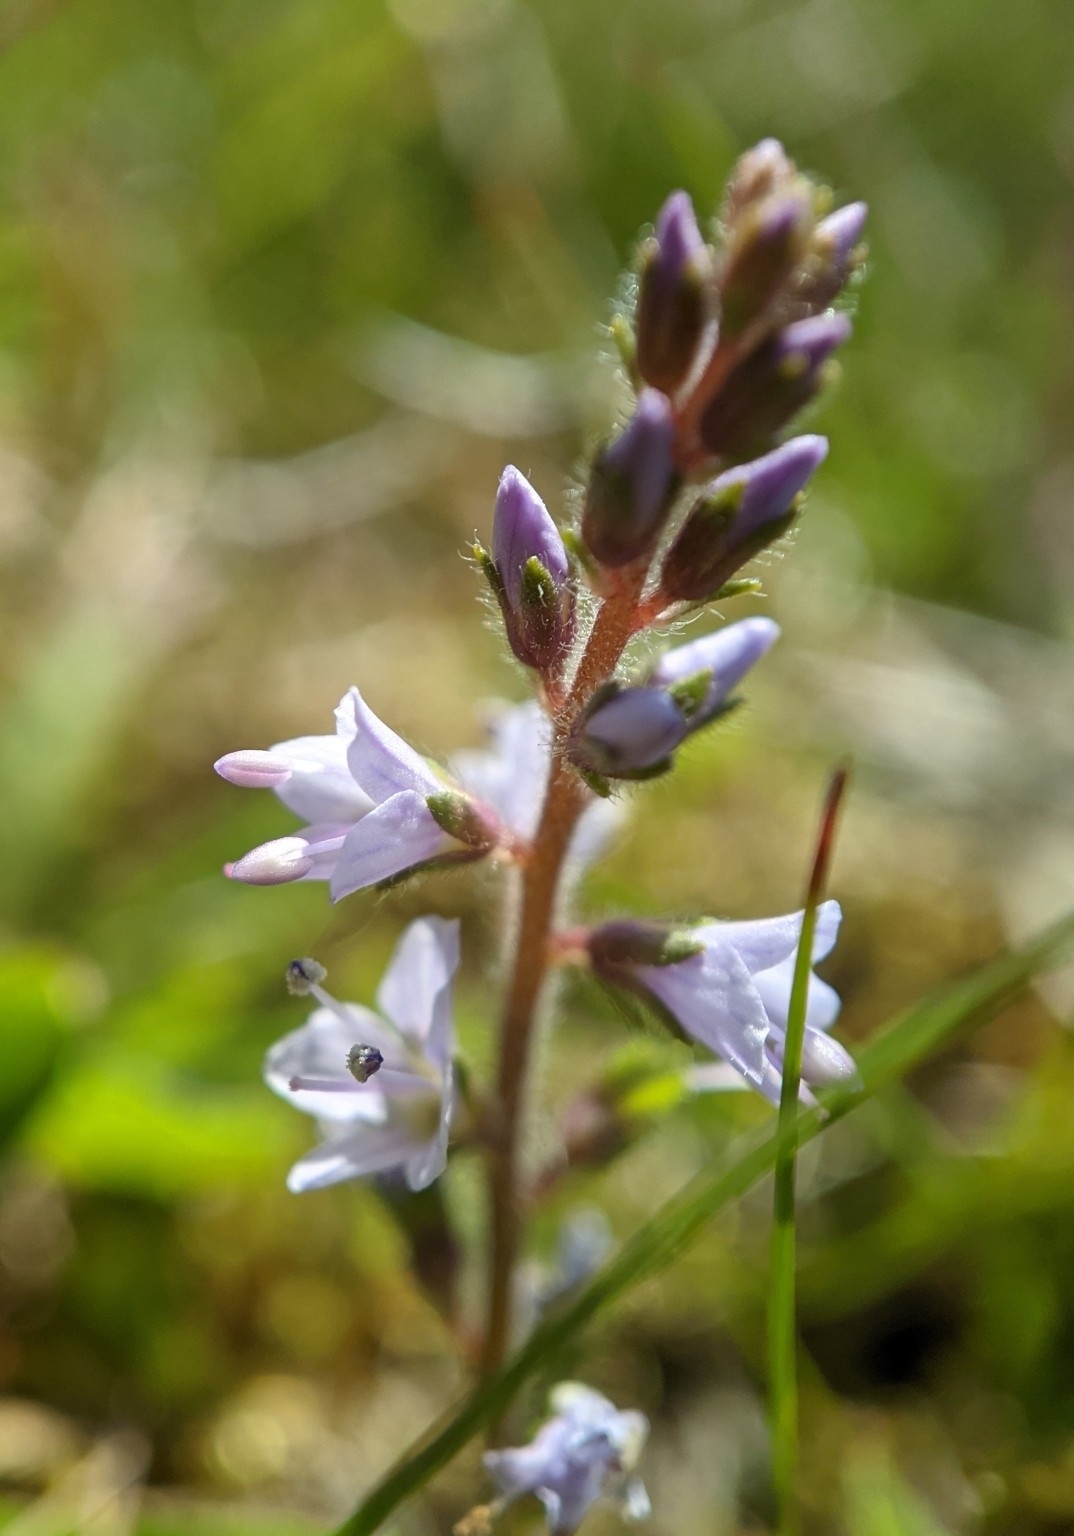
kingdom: Plantae
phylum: Tracheophyta
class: Magnoliopsida
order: Lamiales
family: Plantaginaceae
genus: Veronica
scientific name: Veronica officinalis
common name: Common speedwell
